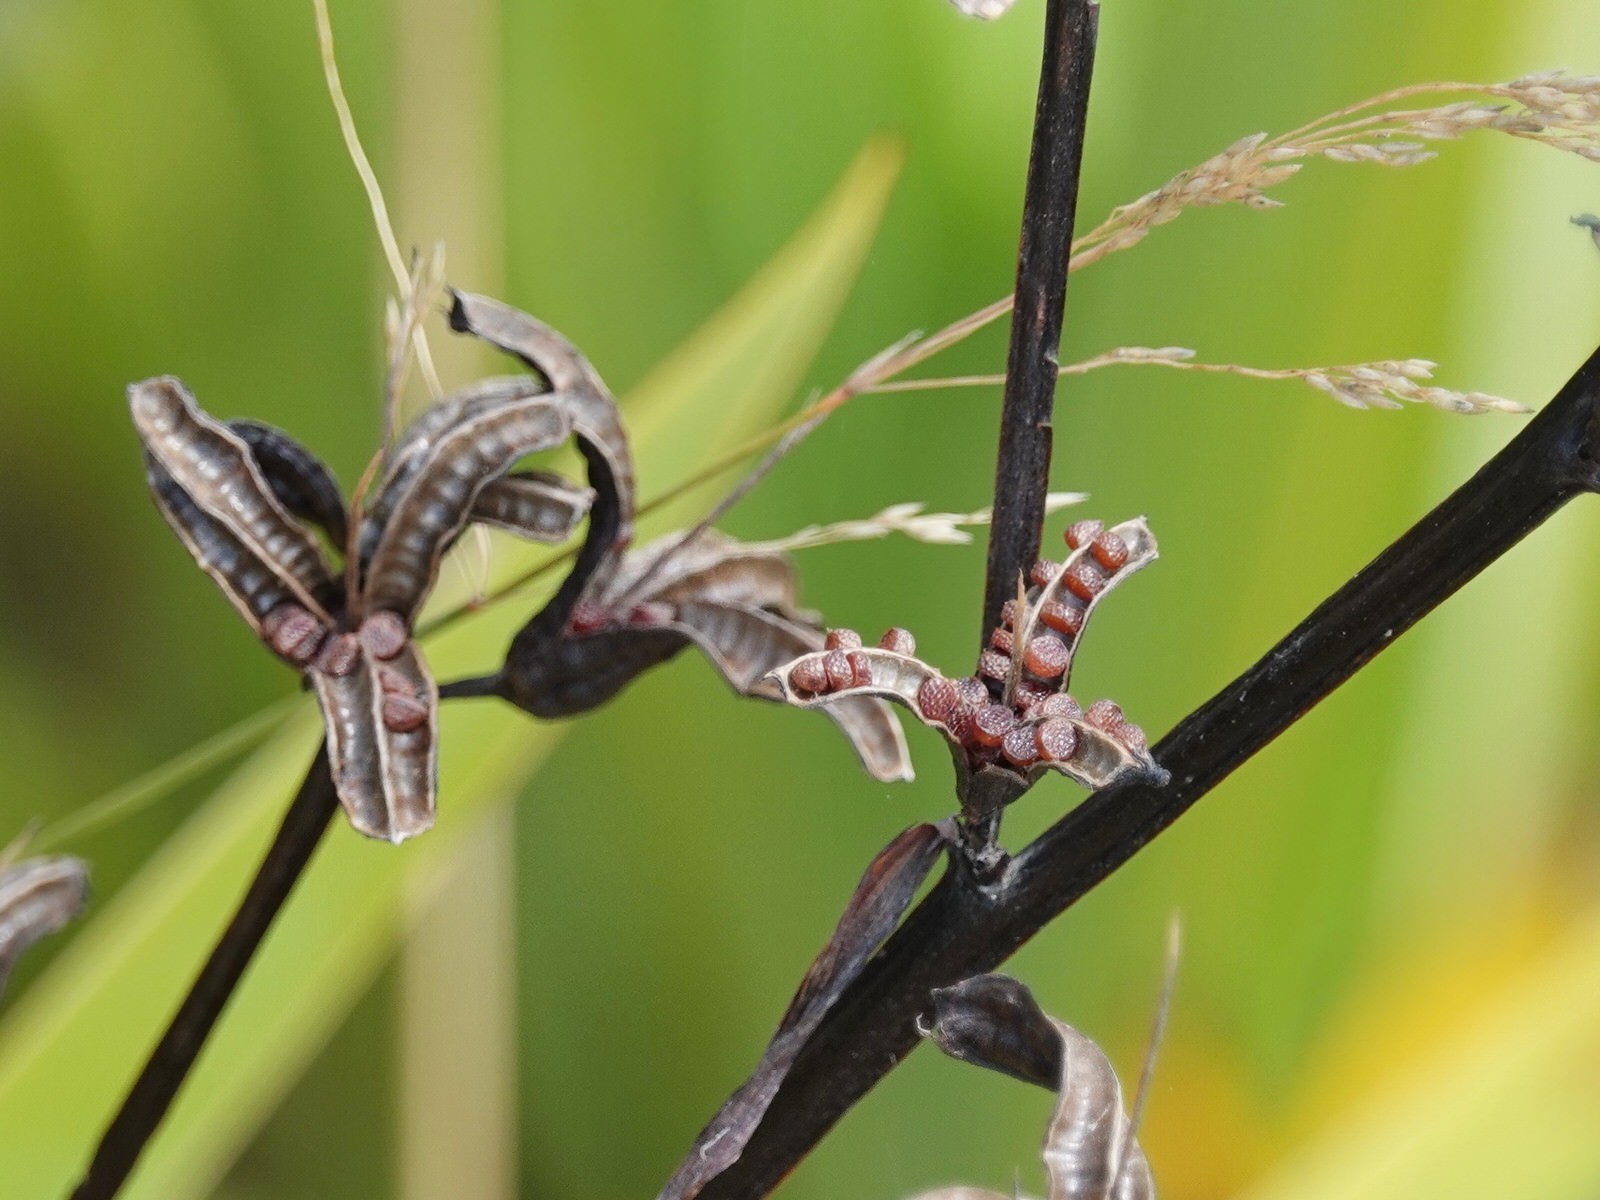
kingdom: Plantae
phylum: Tracheophyta
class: Liliopsida
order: Asparagales
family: Iridaceae
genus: Aristea
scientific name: Aristea ecklonii
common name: Blue corn-lily
